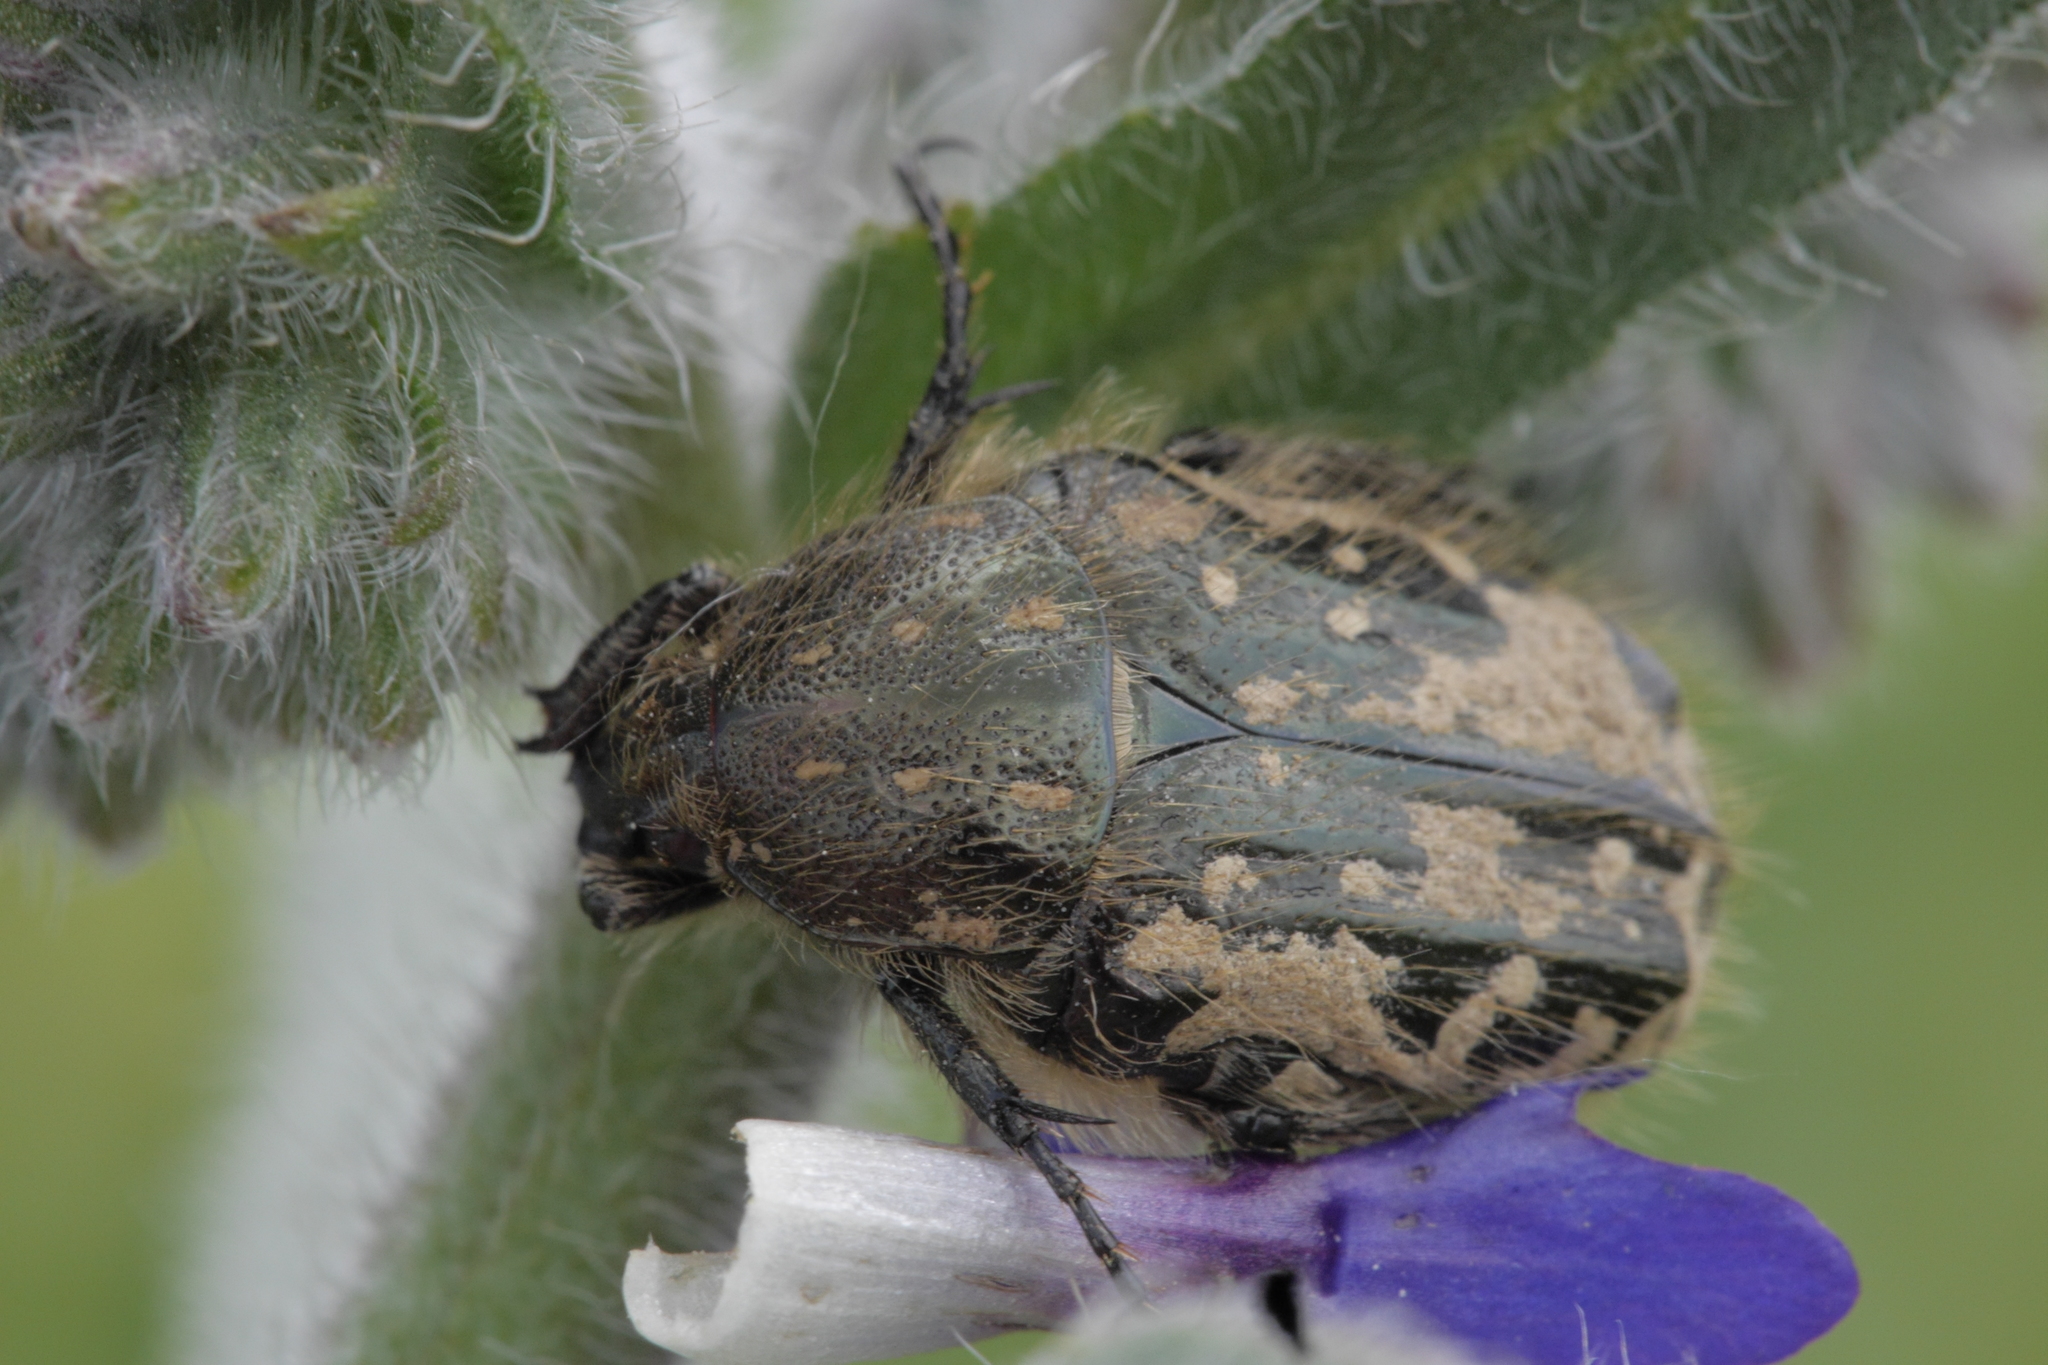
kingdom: Animalia
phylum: Arthropoda
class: Insecta
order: Coleoptera
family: Scarabaeidae
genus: Oxythyrea
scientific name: Oxythyrea funesta
